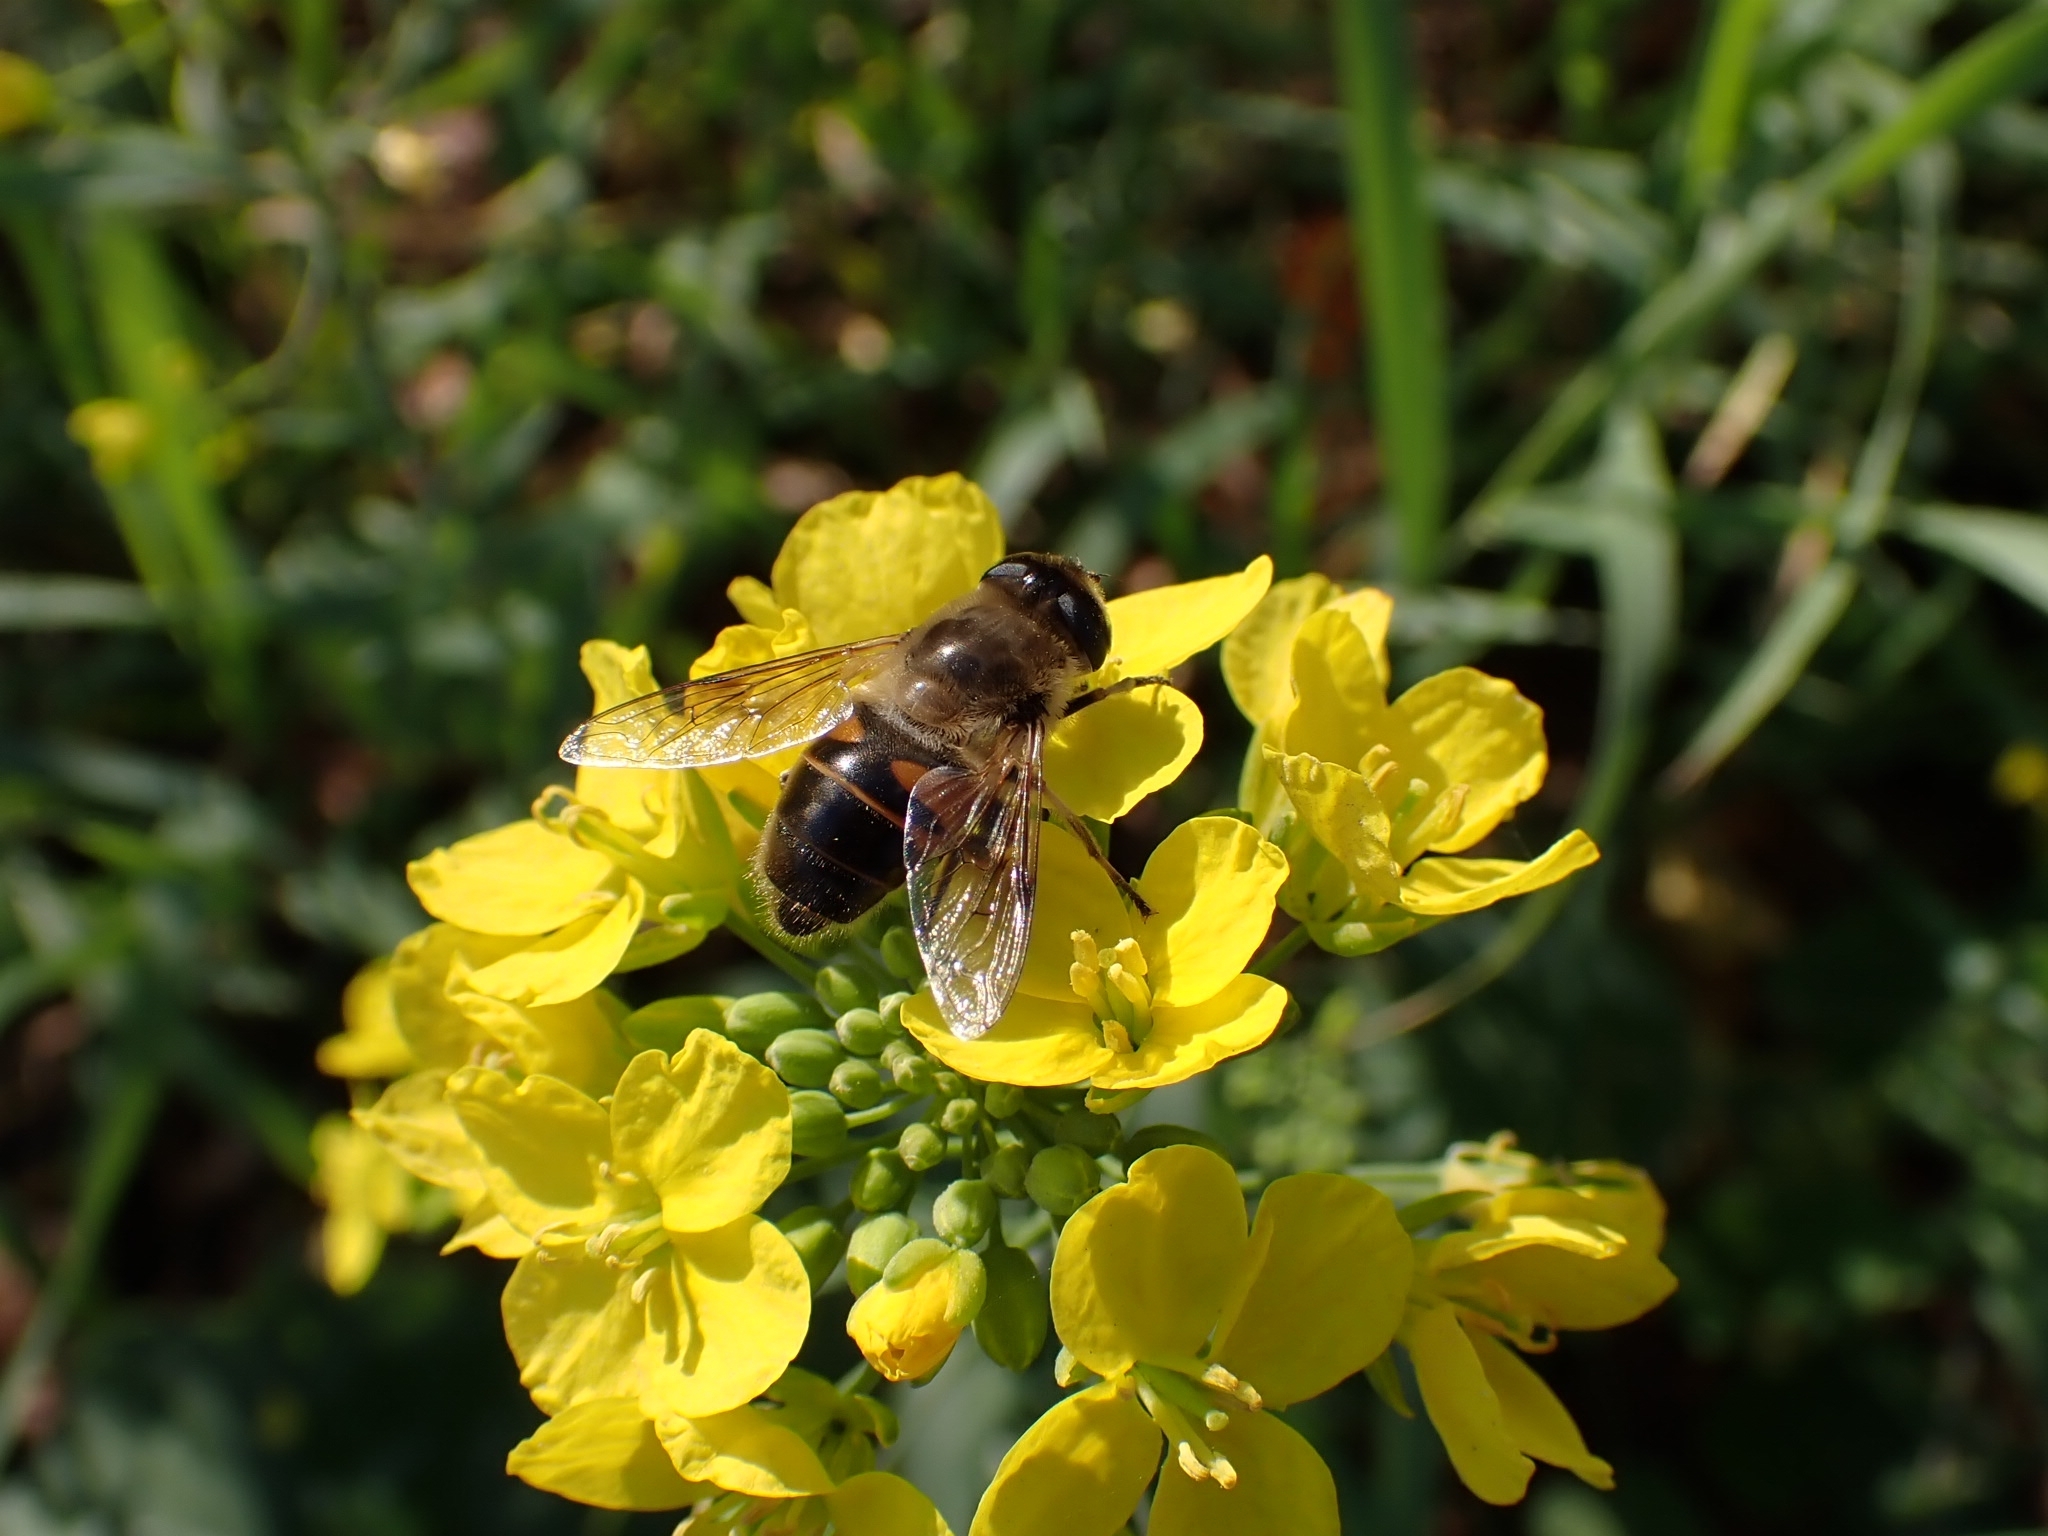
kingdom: Animalia
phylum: Arthropoda
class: Insecta
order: Diptera
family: Syrphidae
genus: Eristalis
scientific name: Eristalis tenax
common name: Drone fly
